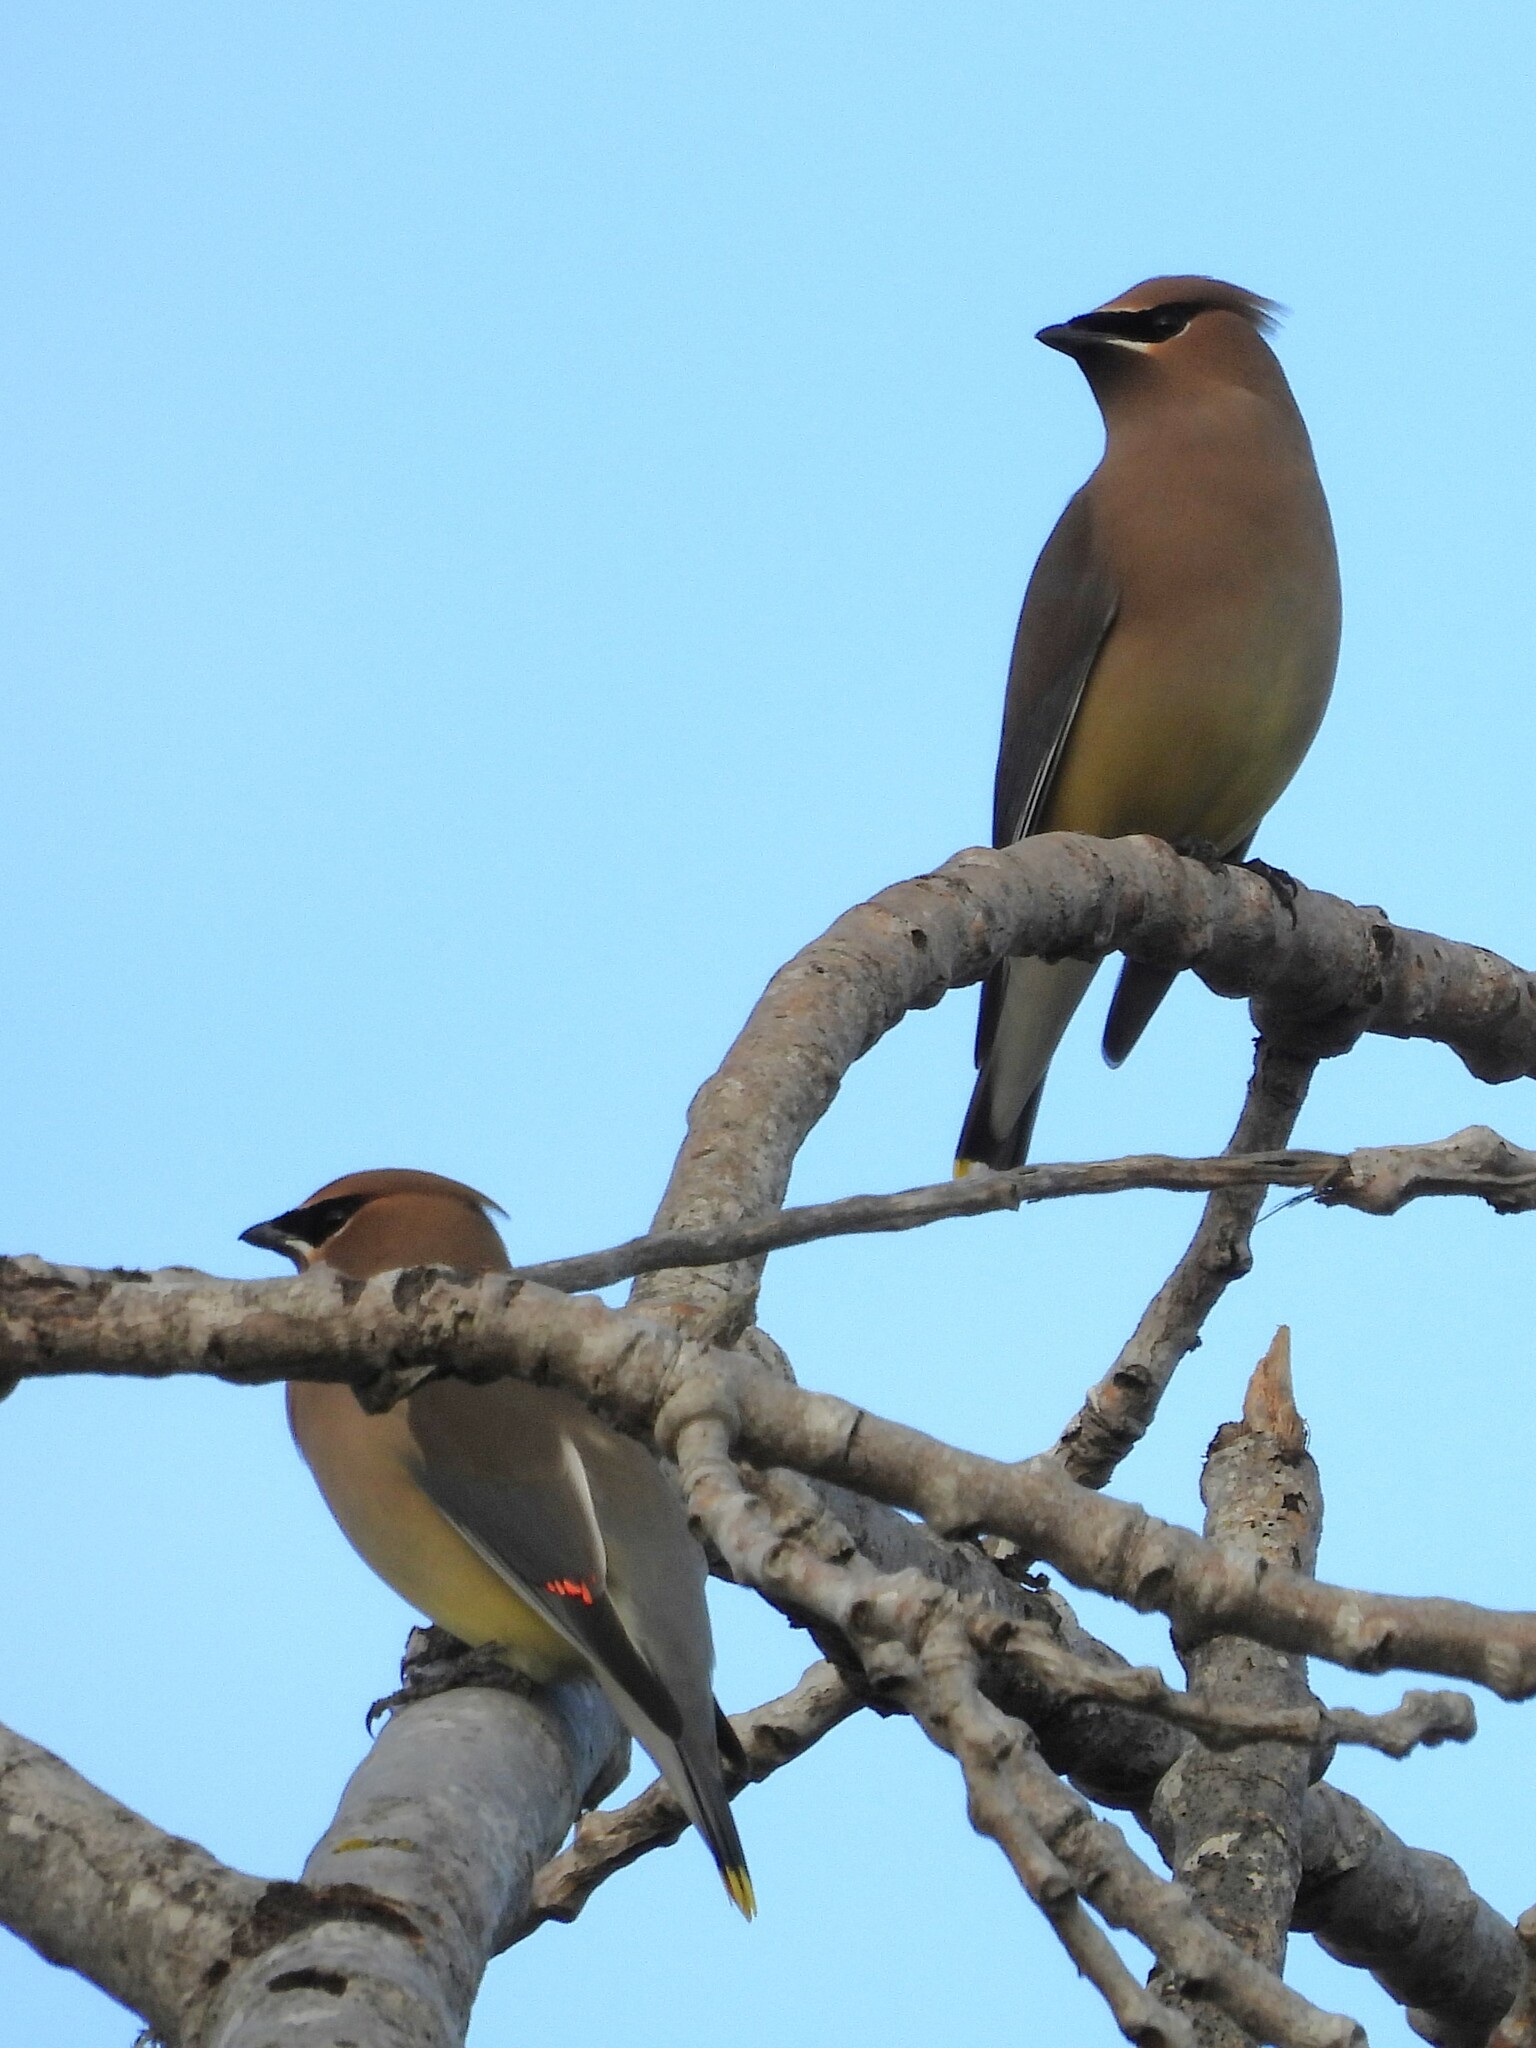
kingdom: Animalia
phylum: Chordata
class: Aves
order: Passeriformes
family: Bombycillidae
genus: Bombycilla
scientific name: Bombycilla cedrorum
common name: Cedar waxwing
